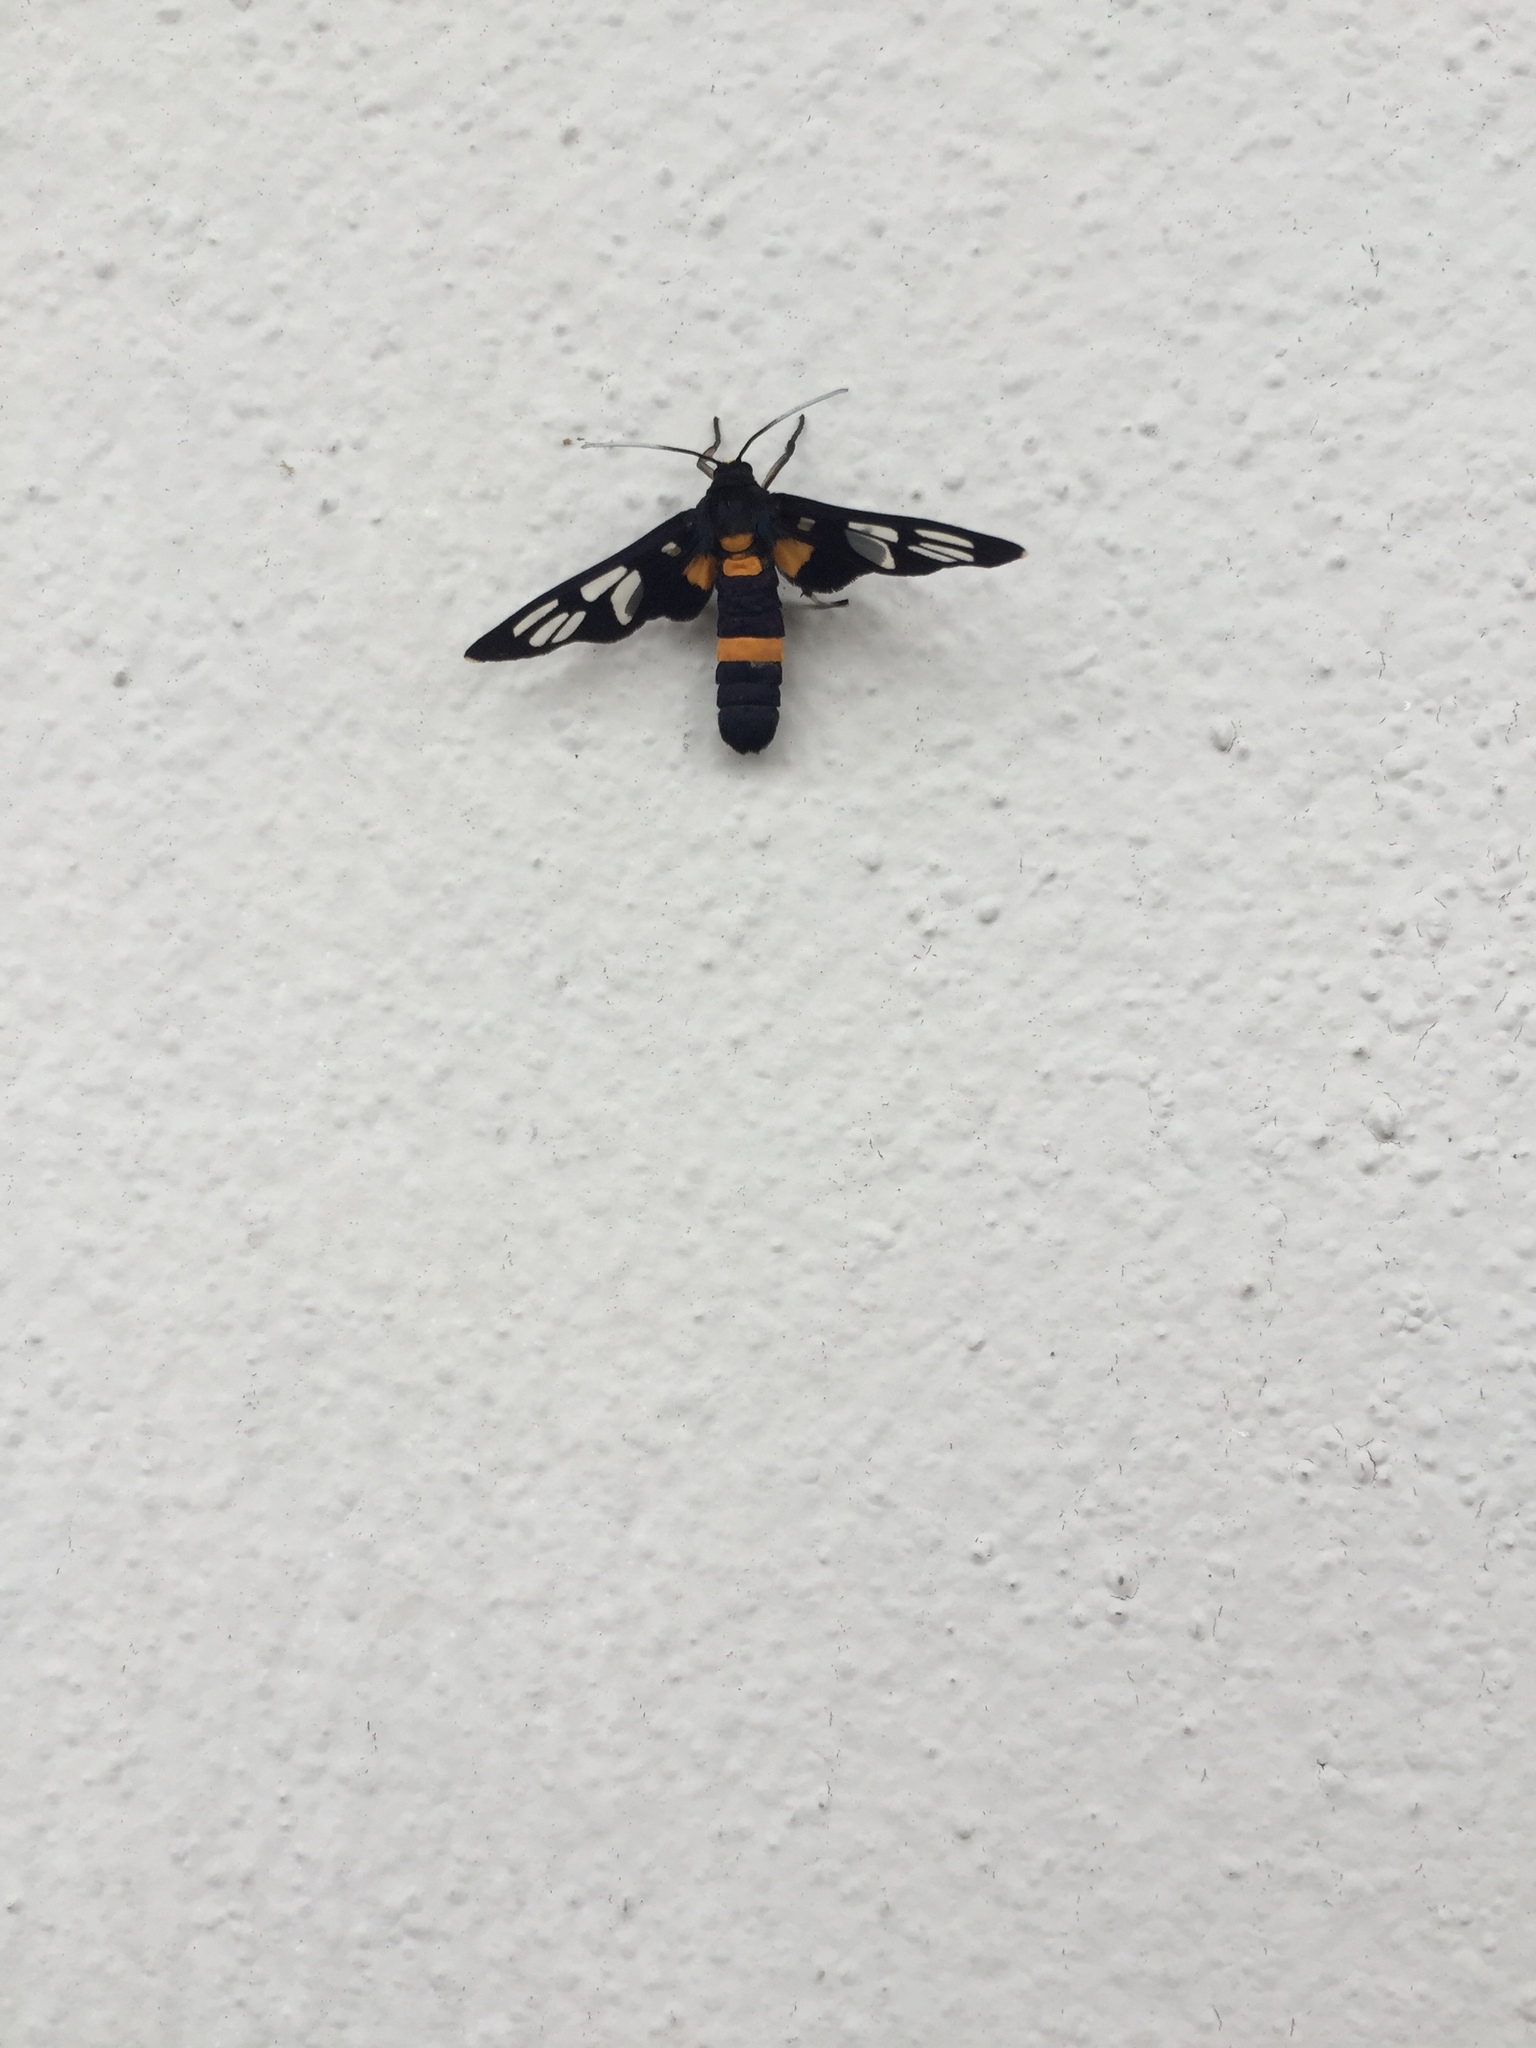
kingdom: Animalia
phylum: Arthropoda
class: Insecta
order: Lepidoptera
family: Erebidae
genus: Amata
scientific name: Amata sperbius
